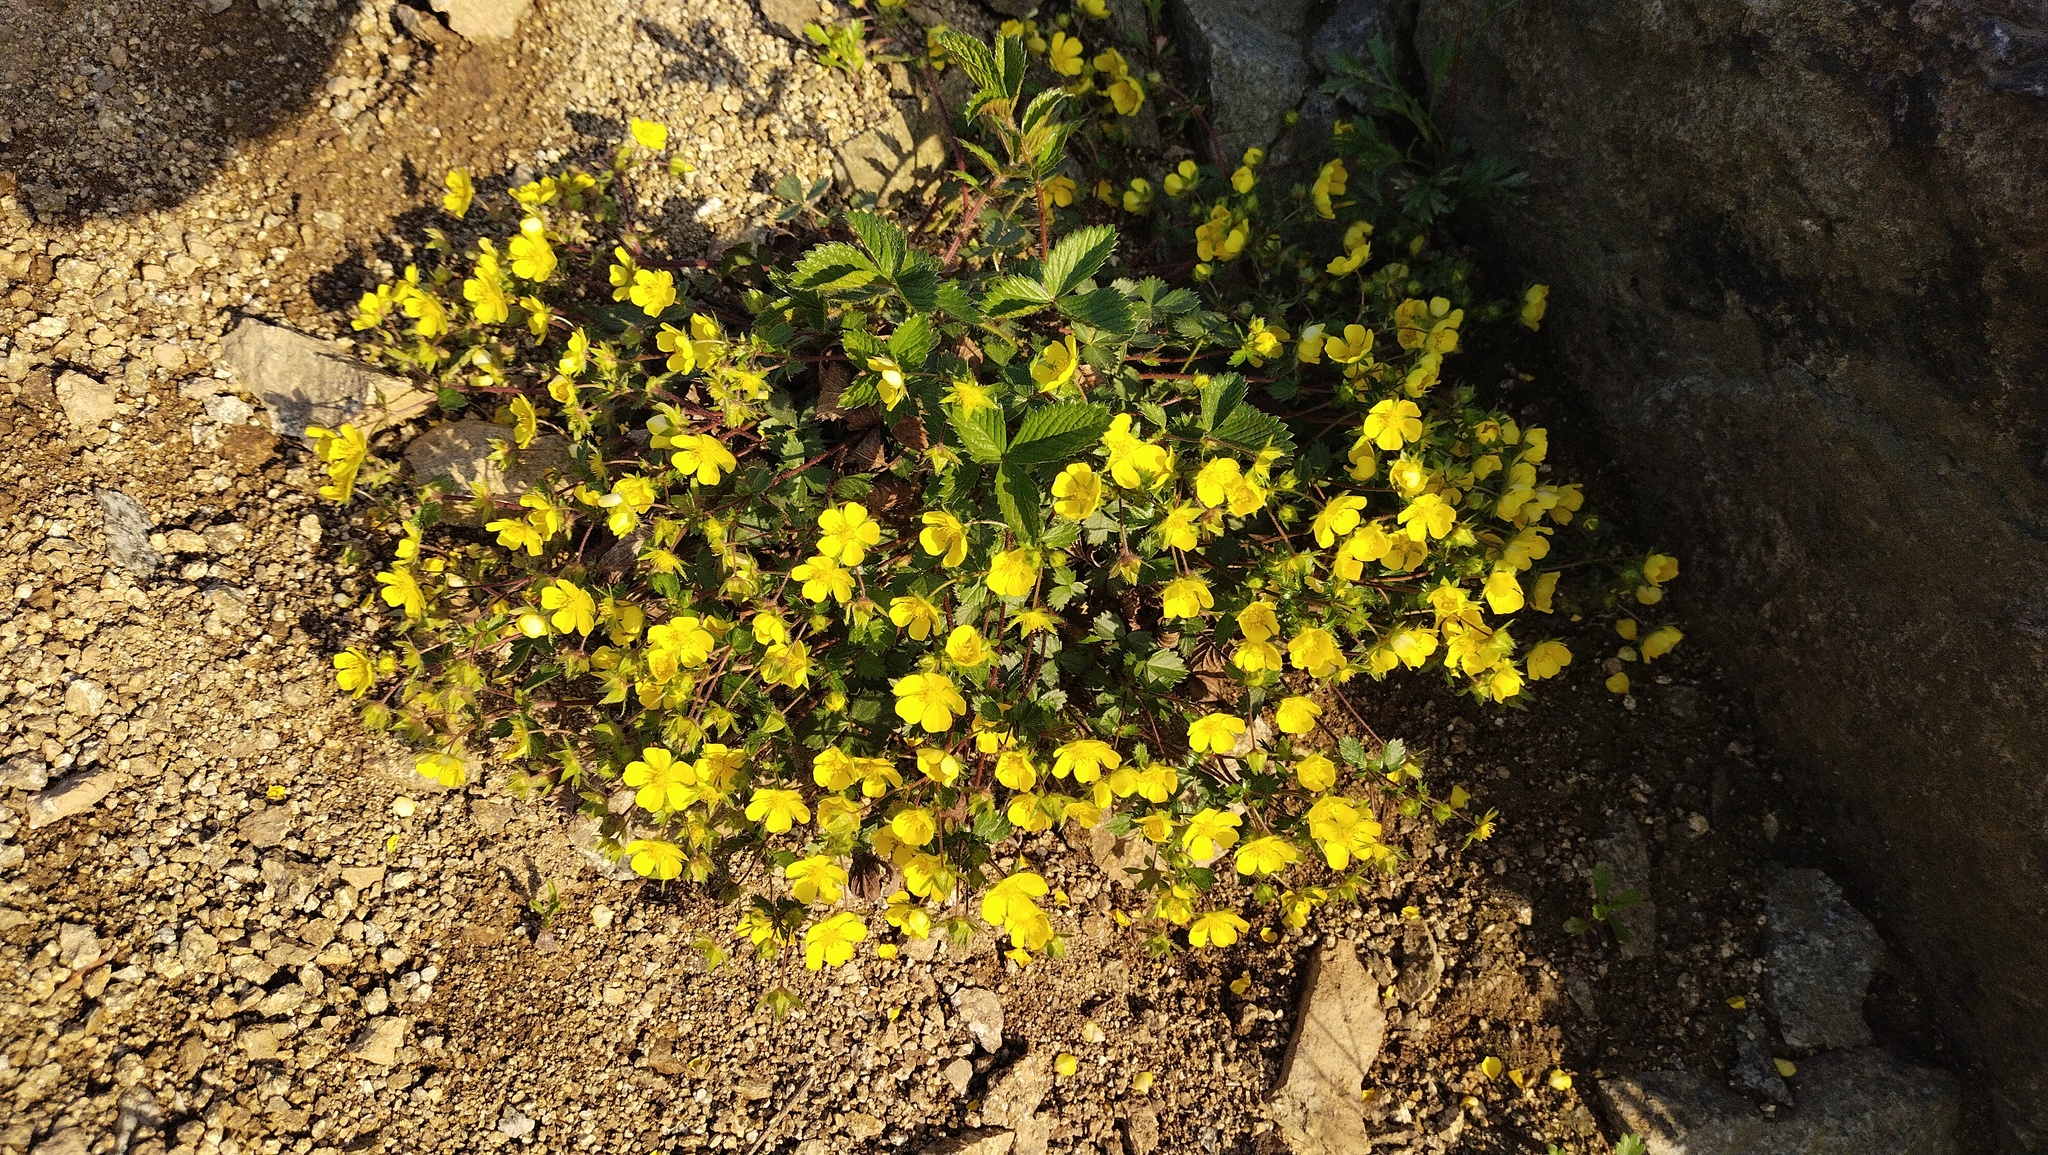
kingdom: Plantae
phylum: Tracheophyta
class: Magnoliopsida
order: Rosales
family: Rosaceae
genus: Potentilla
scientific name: Potentilla fragarioides
